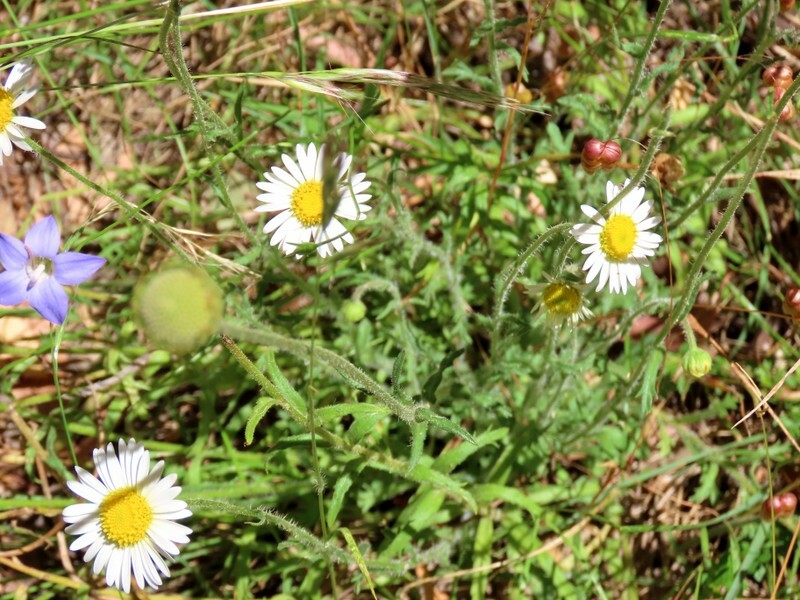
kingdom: Plantae
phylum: Tracheophyta
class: Magnoliopsida
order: Asterales
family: Asteraceae
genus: Brachyscome
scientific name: Brachyscome diversifolia
